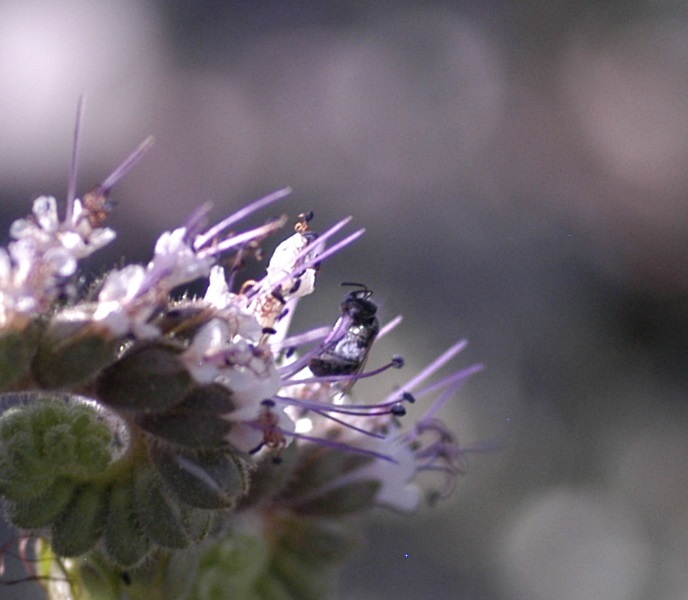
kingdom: Animalia
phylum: Arthropoda
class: Insecta
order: Hymenoptera
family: Halictidae
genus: Dialictus
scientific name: Dialictus
